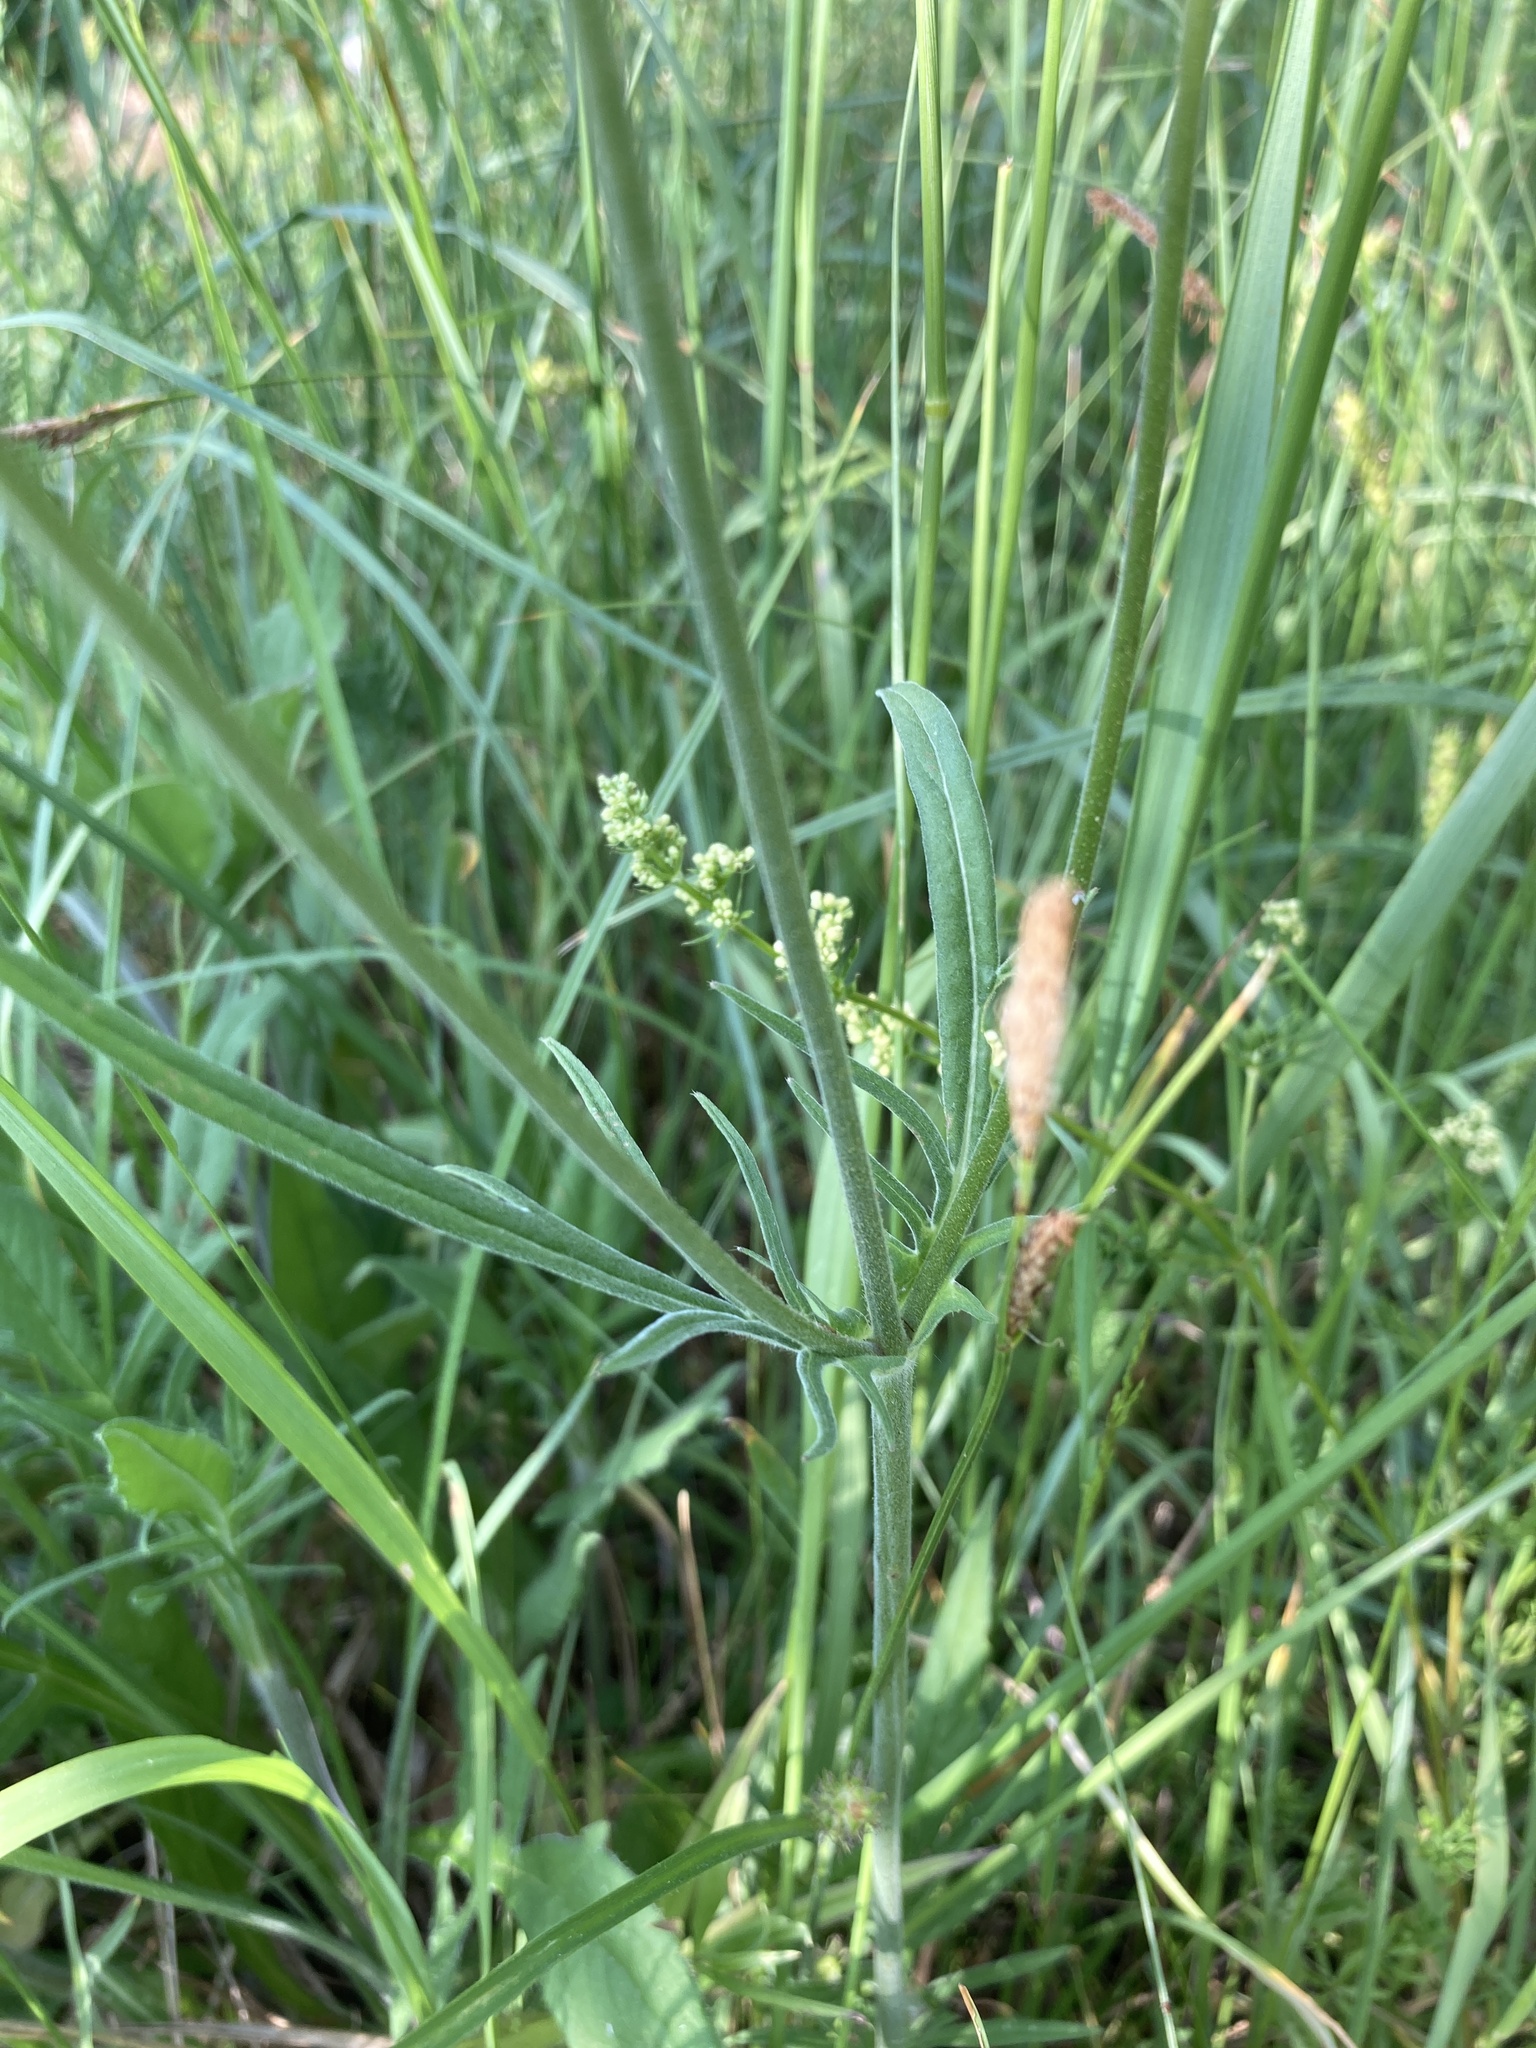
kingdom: Plantae
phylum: Tracheophyta
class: Magnoliopsida
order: Dipsacales
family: Caprifoliaceae
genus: Knautia
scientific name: Knautia arvensis
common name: Field scabiosa
